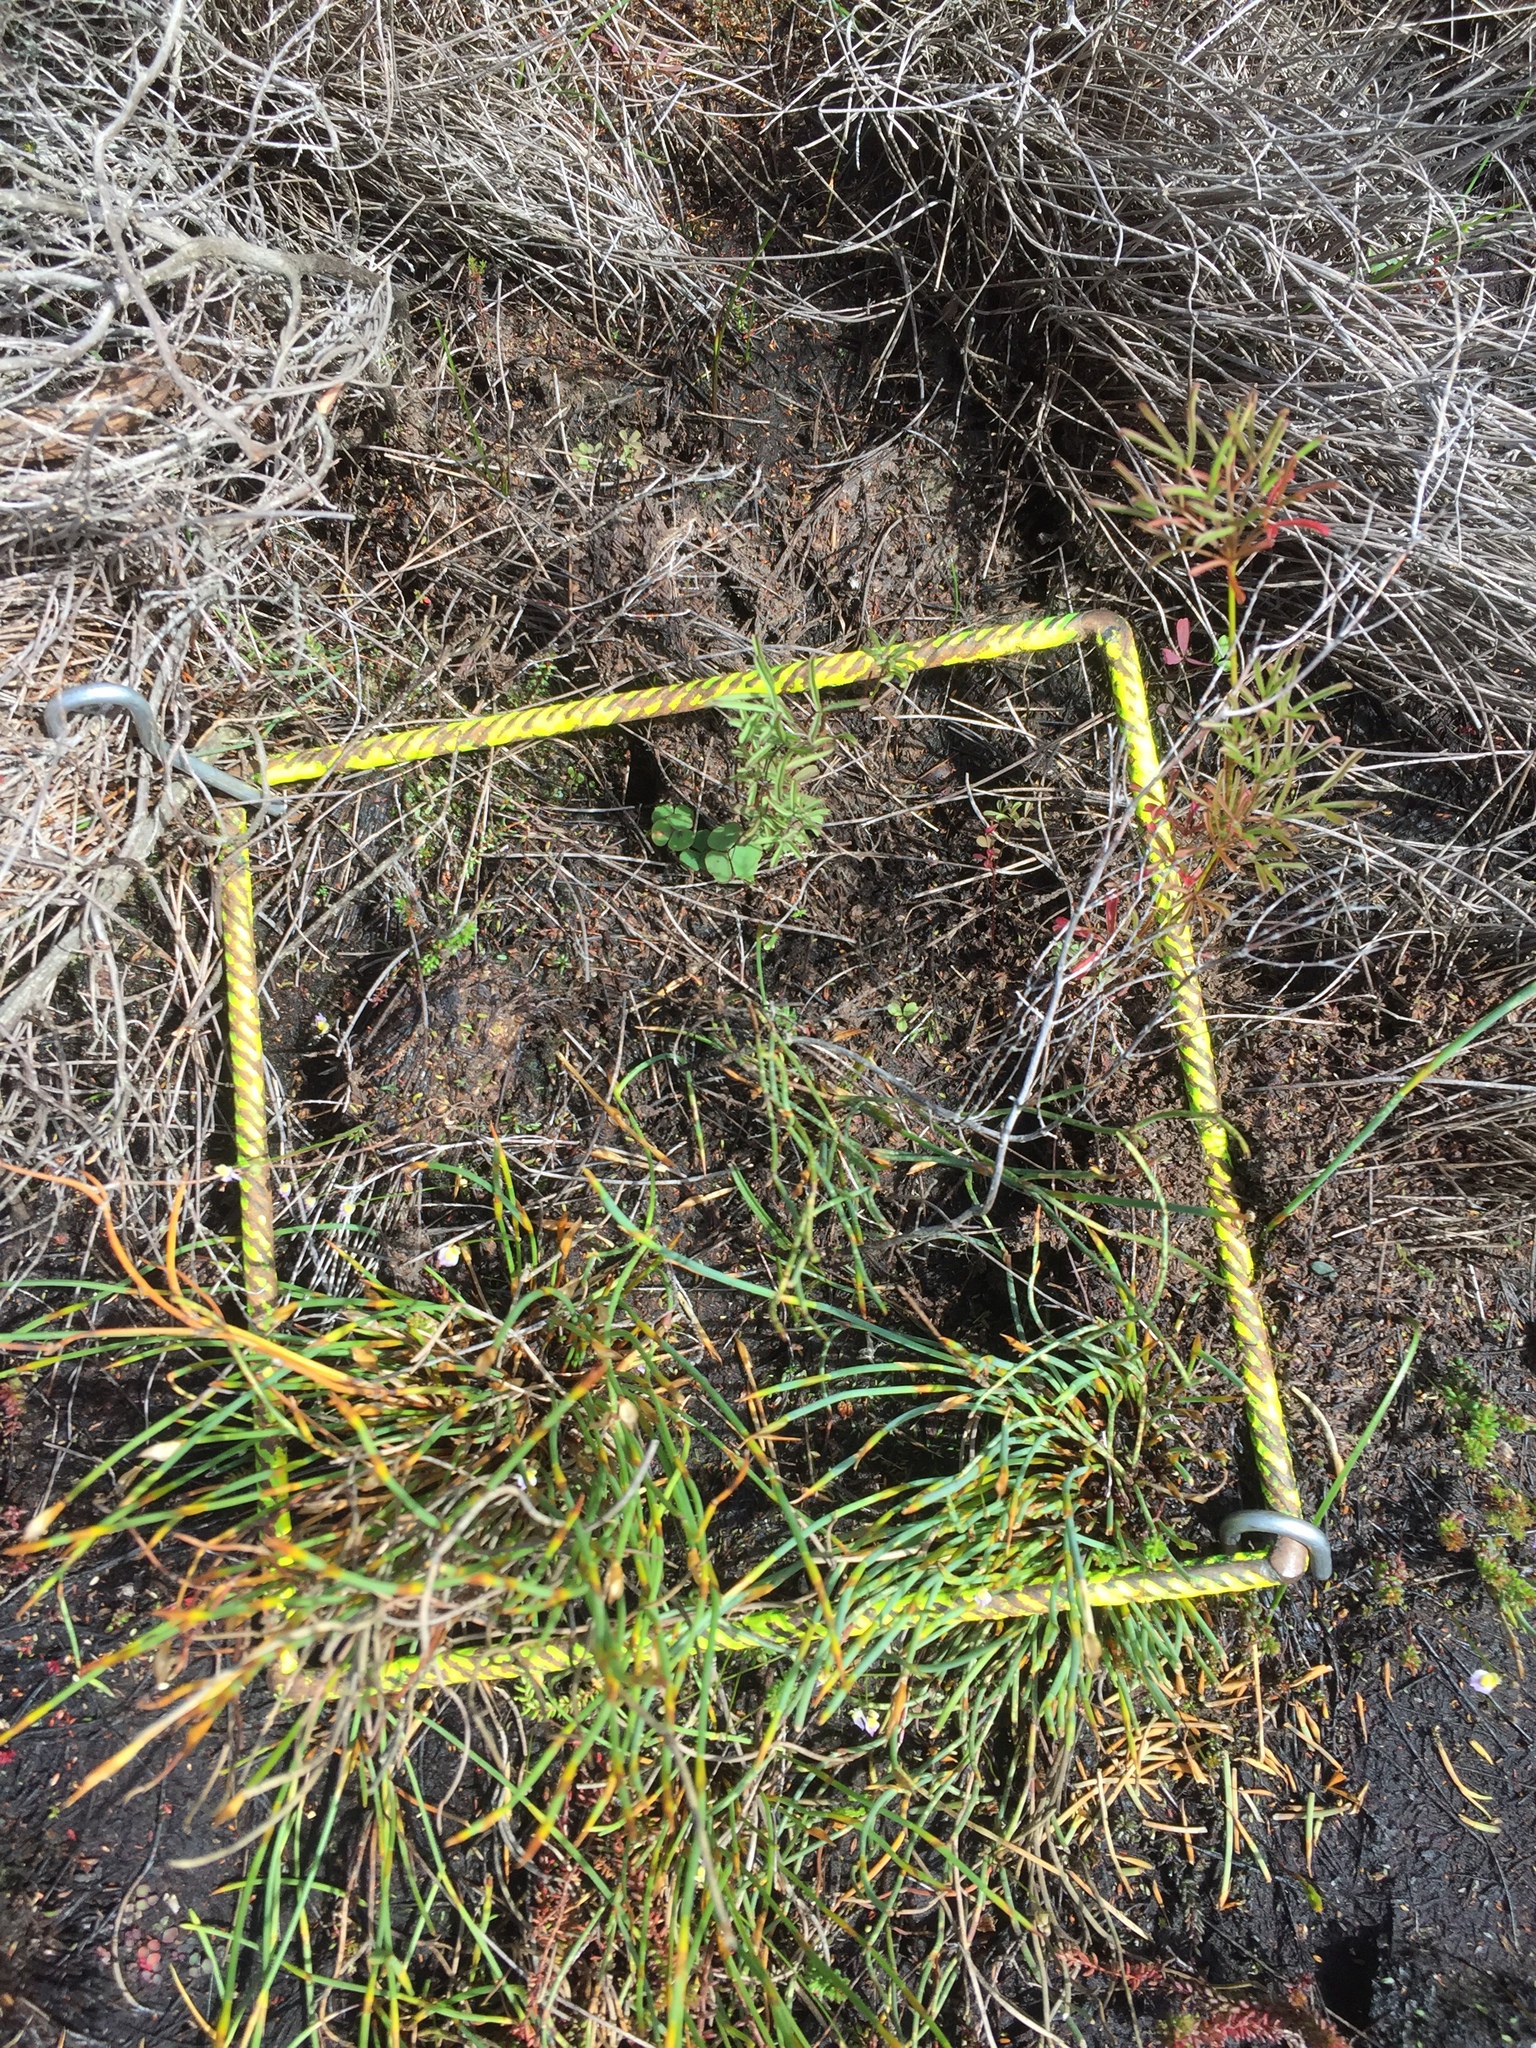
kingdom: Plantae
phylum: Tracheophyta
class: Magnoliopsida
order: Oxalidales
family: Oxalidaceae
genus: Oxalis
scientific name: Oxalis commutata
